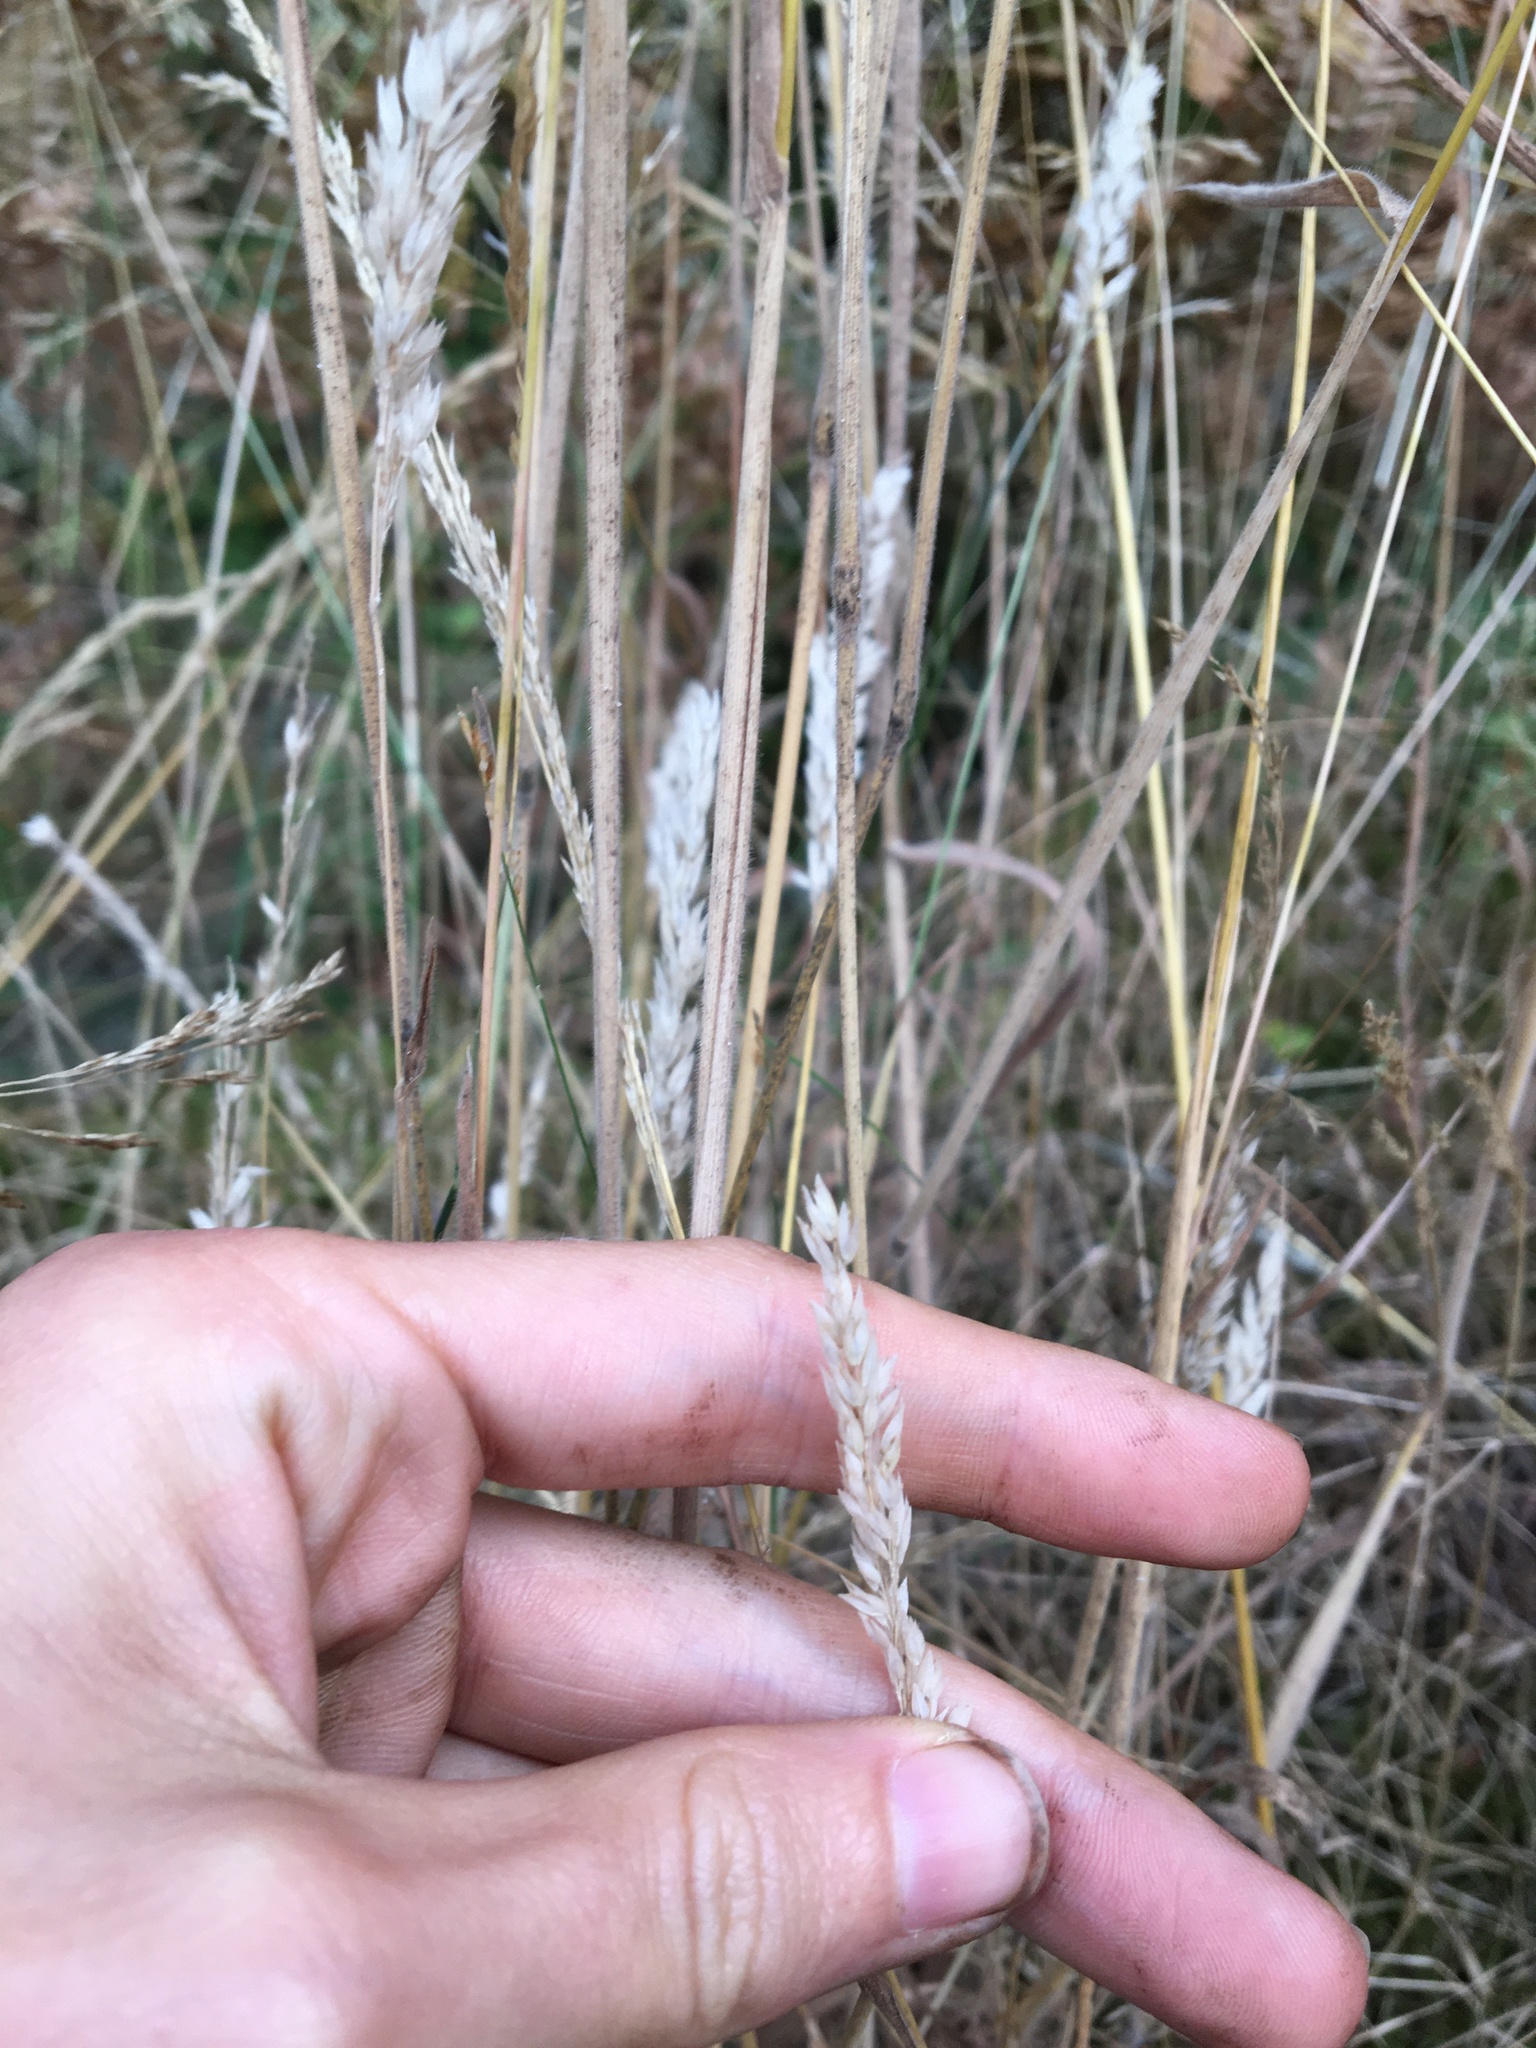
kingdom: Plantae
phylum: Tracheophyta
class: Liliopsida
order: Poales
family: Poaceae
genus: Holcus
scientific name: Holcus lanatus
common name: Yorkshire-fog
